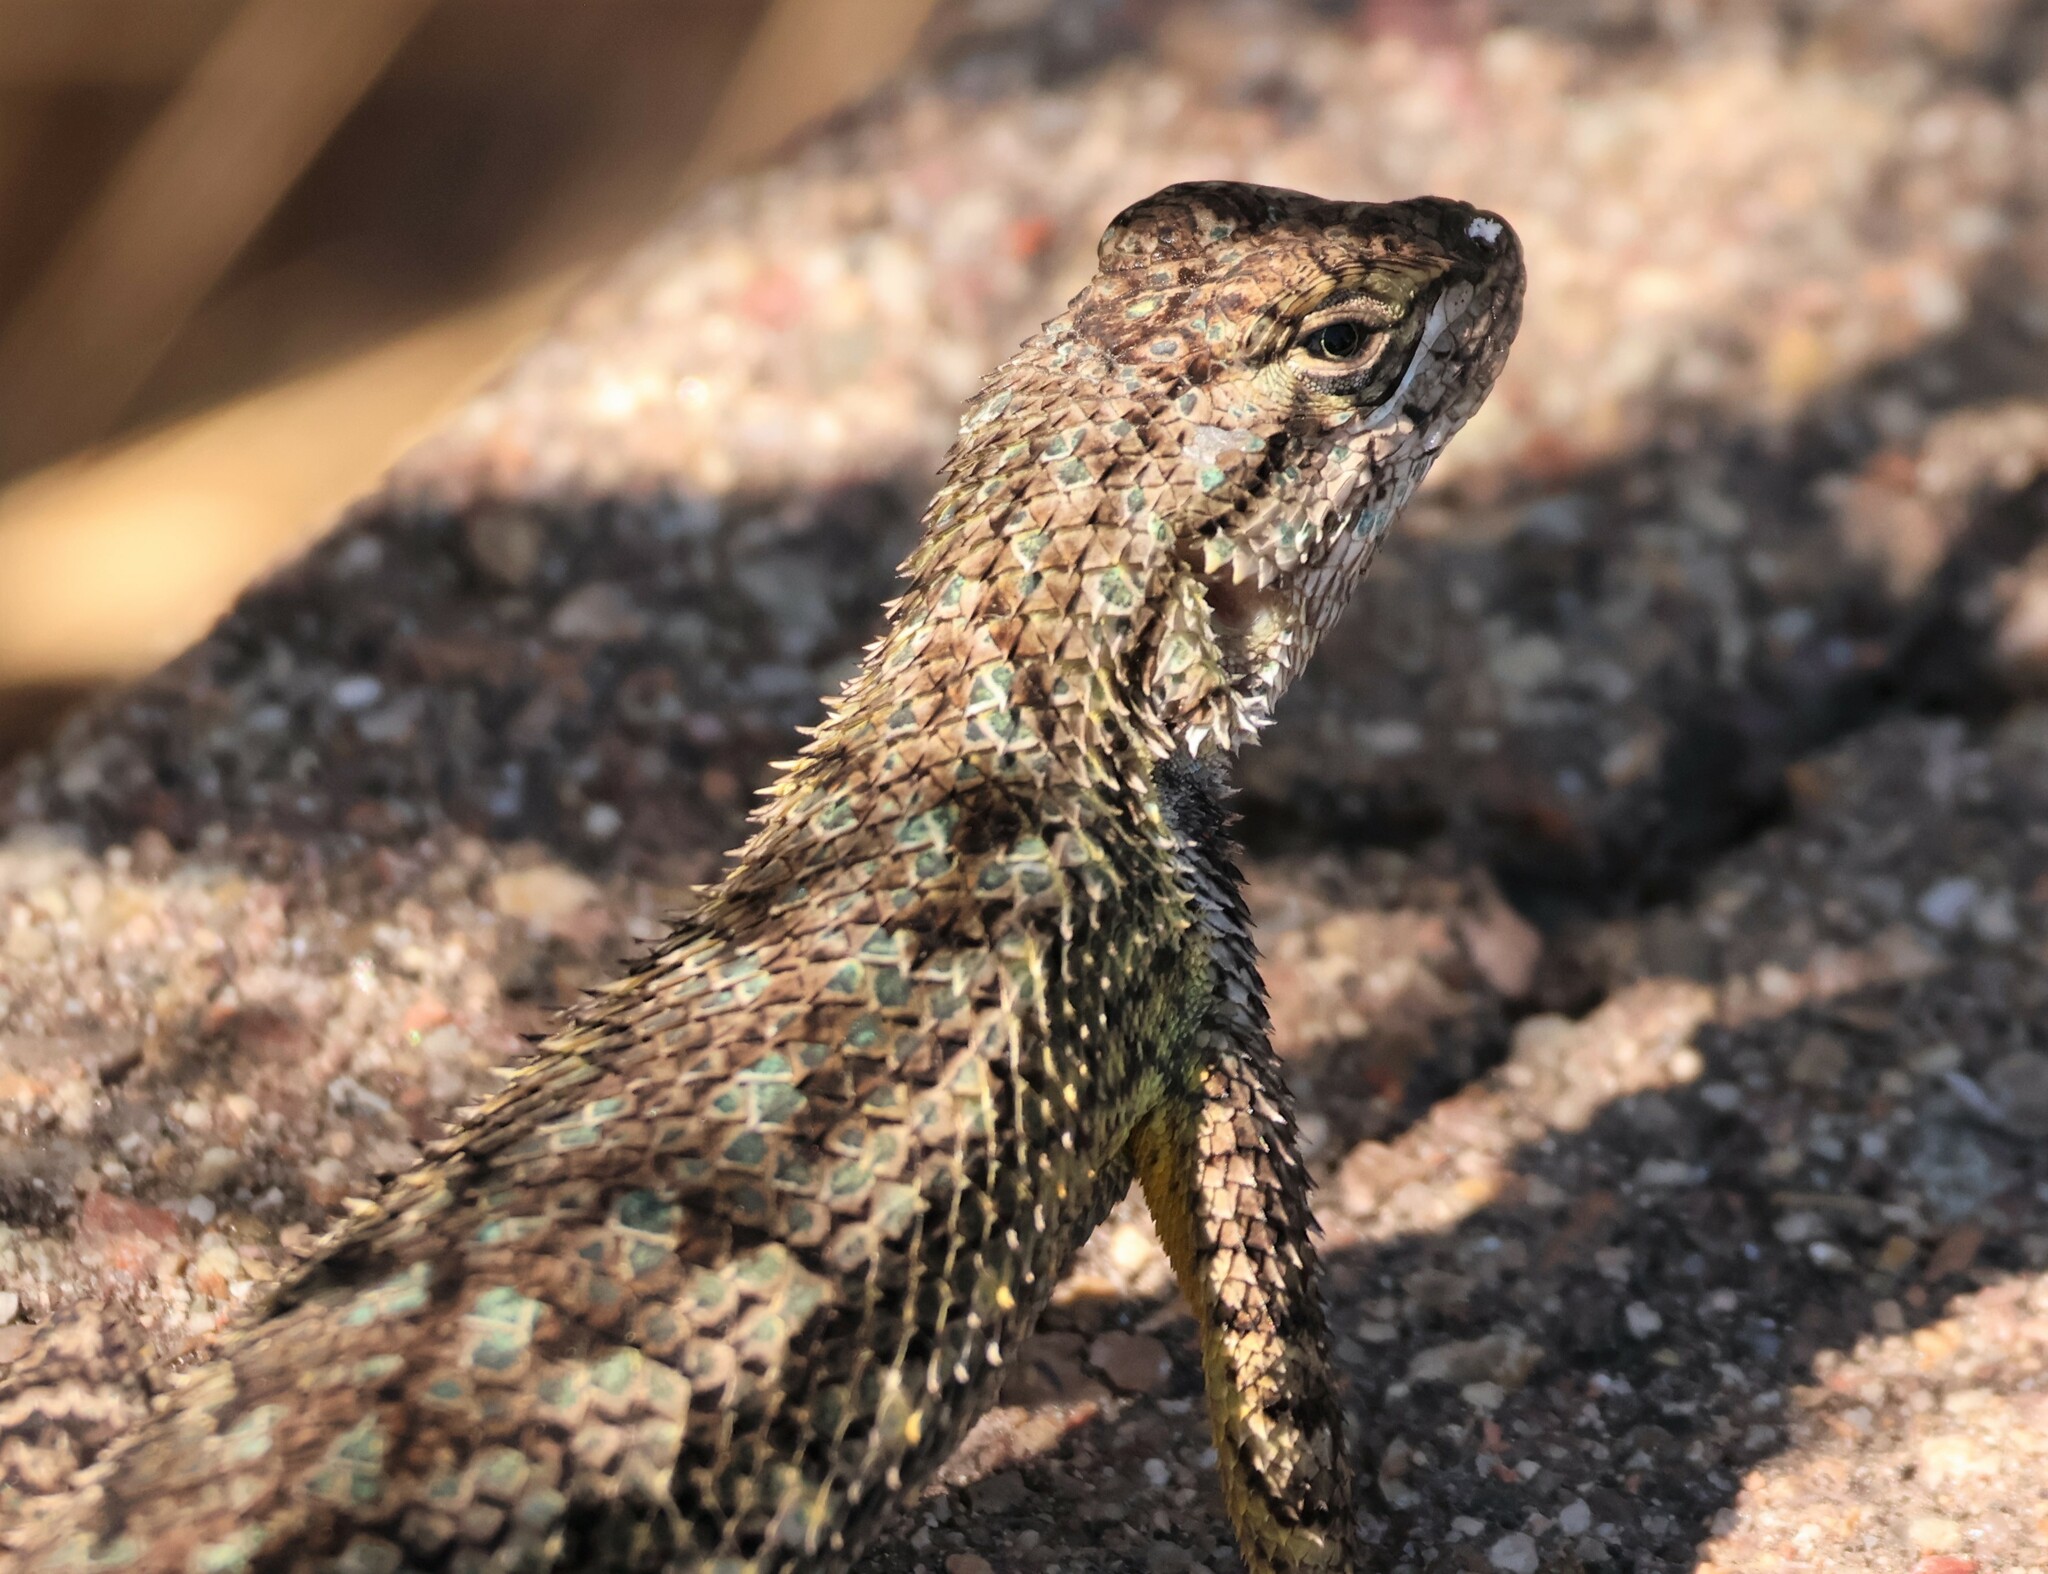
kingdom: Animalia
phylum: Chordata
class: Squamata
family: Phrynosomatidae
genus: Sceloporus
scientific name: Sceloporus occidentalis
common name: Western fence lizard
